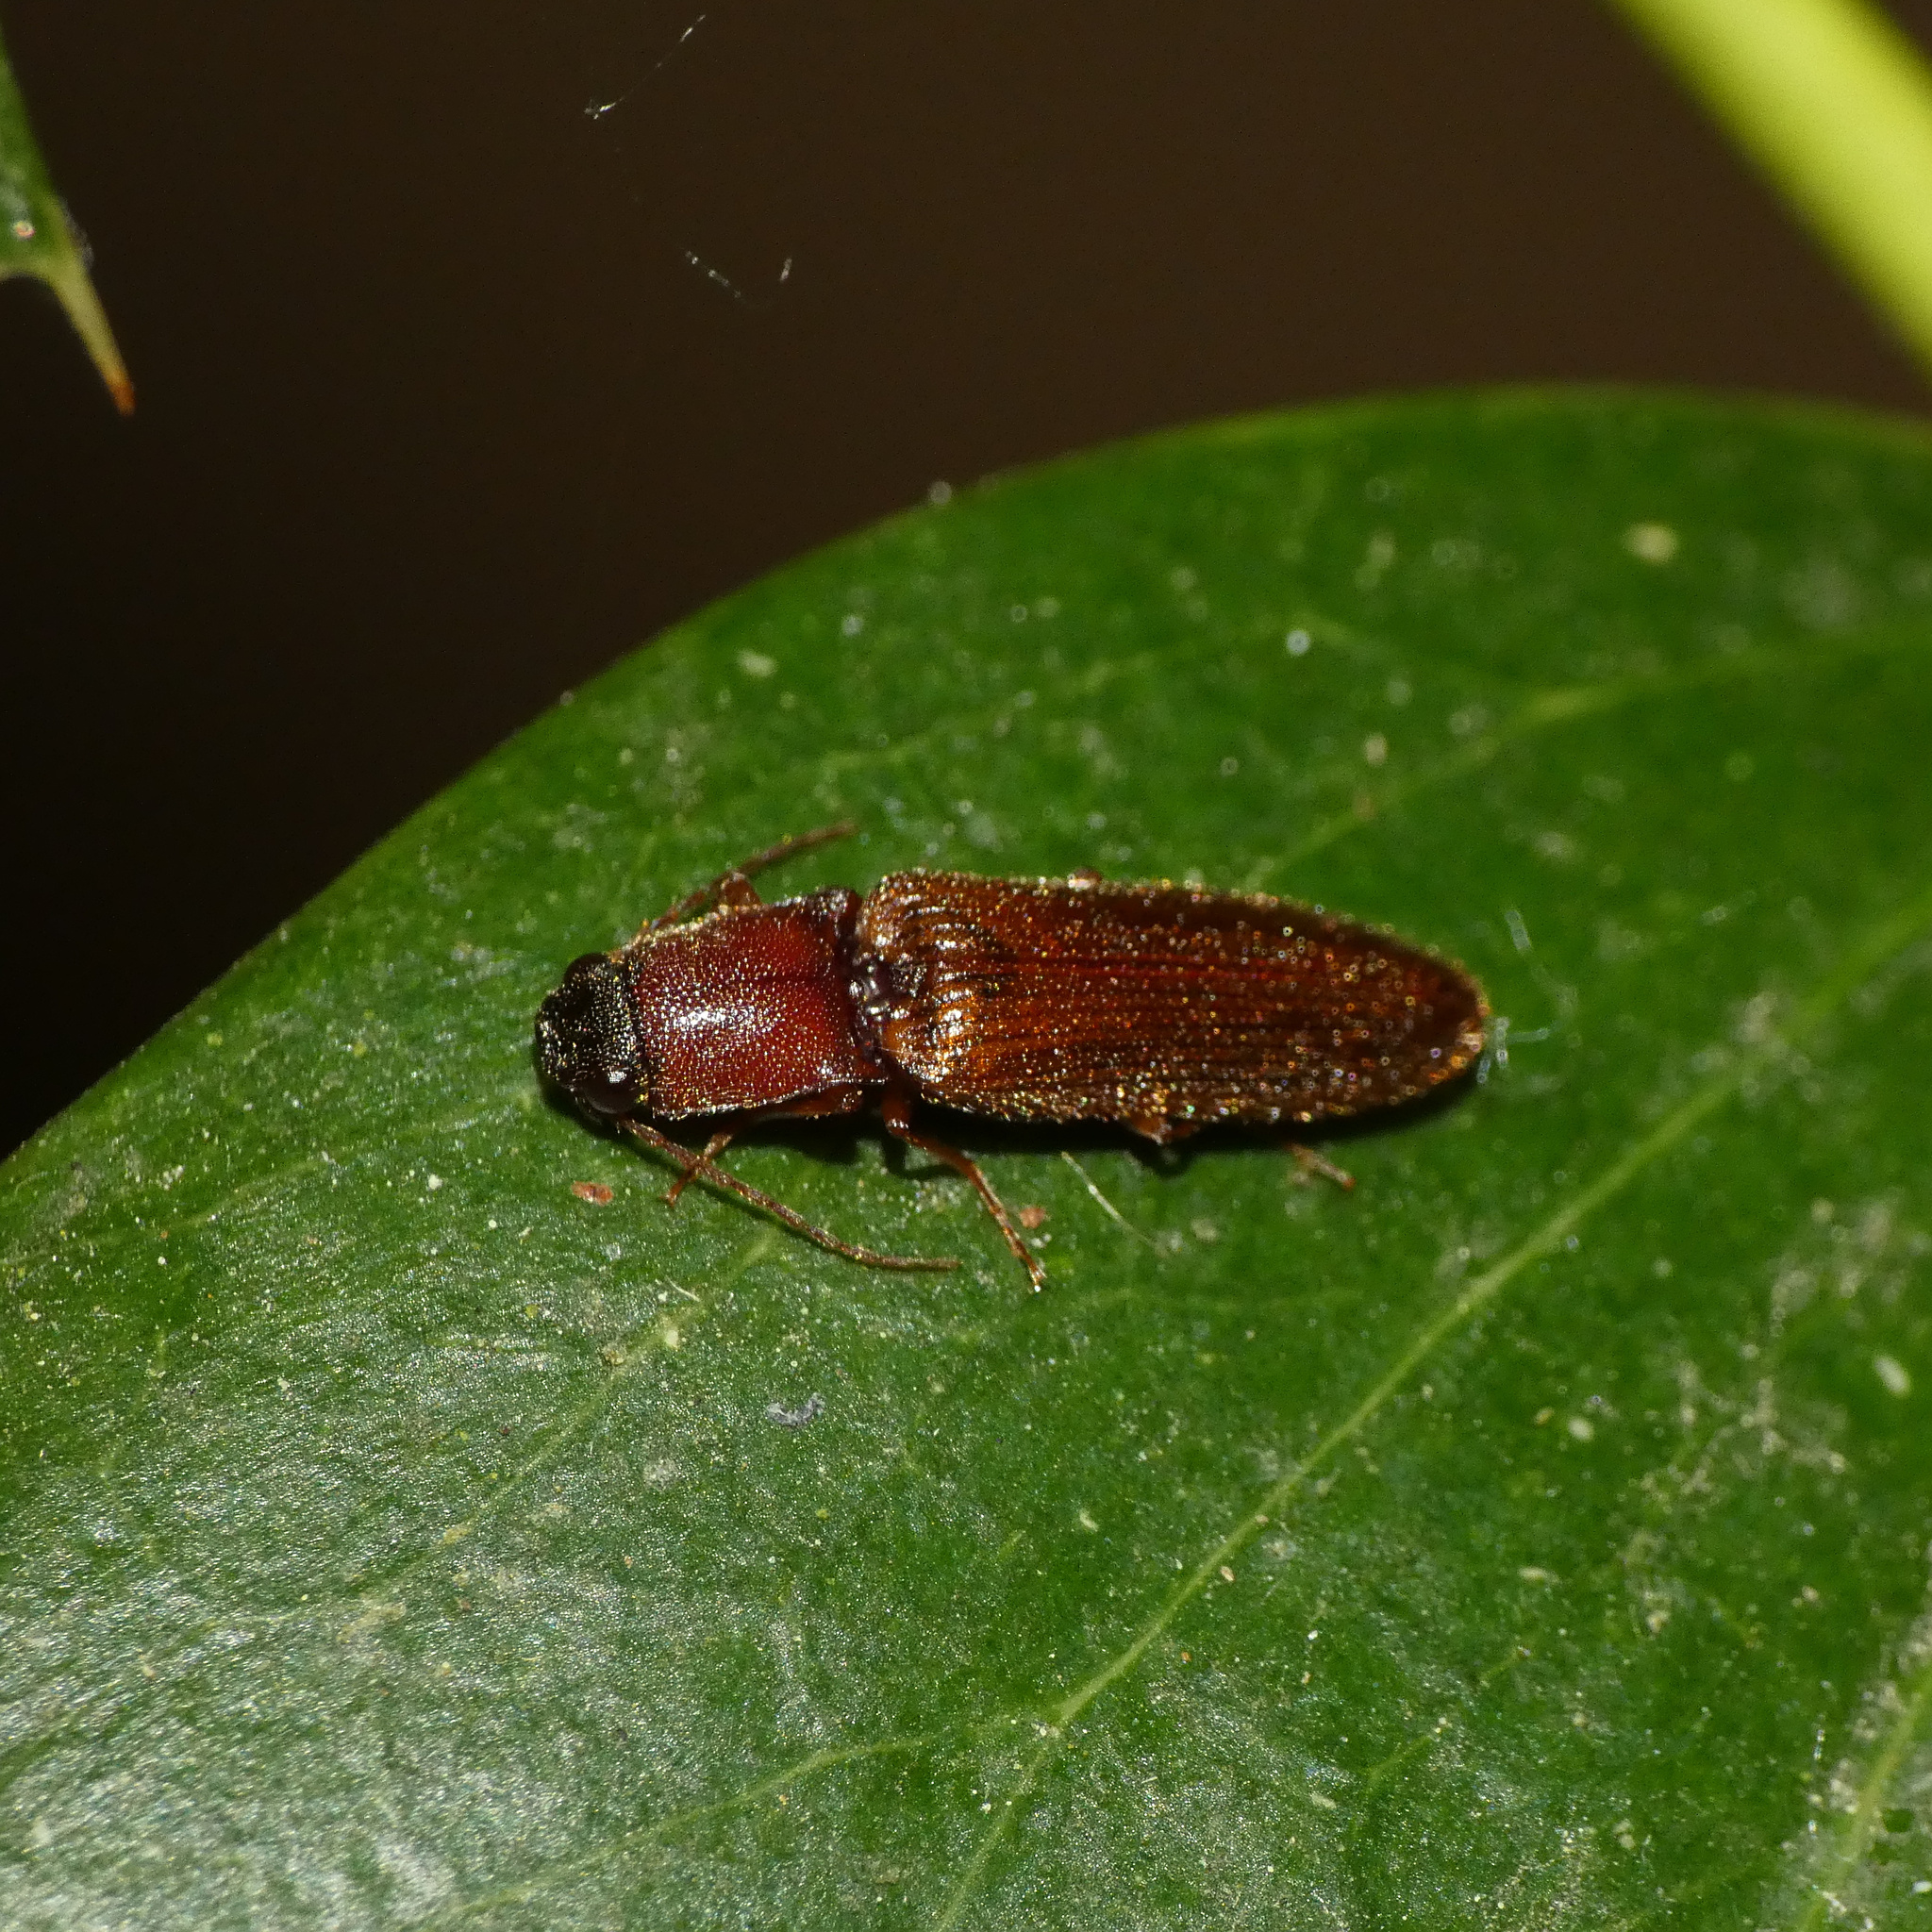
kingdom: Animalia
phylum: Arthropoda
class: Insecta
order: Coleoptera
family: Elateridae
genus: Athous
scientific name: Athous rufiventris
